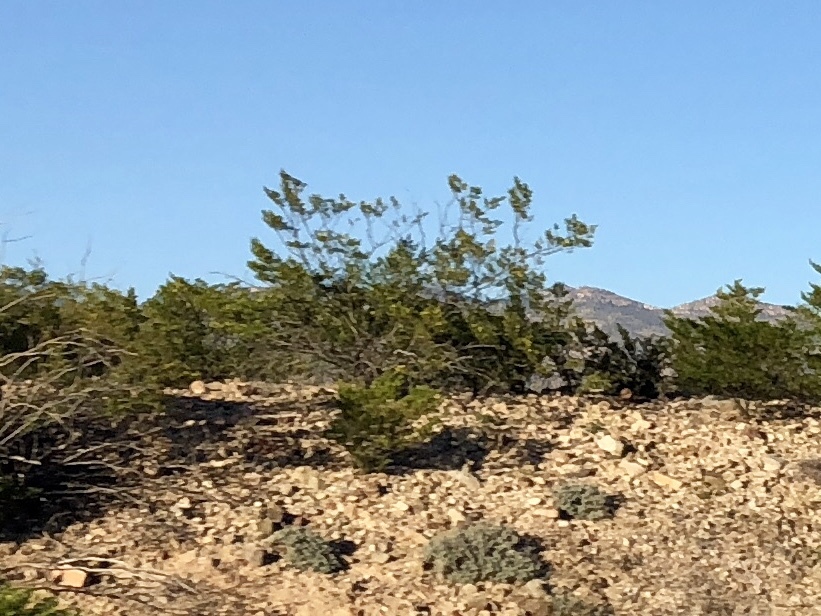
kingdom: Plantae
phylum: Tracheophyta
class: Magnoliopsida
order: Zygophyllales
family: Zygophyllaceae
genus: Larrea
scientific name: Larrea tridentata
